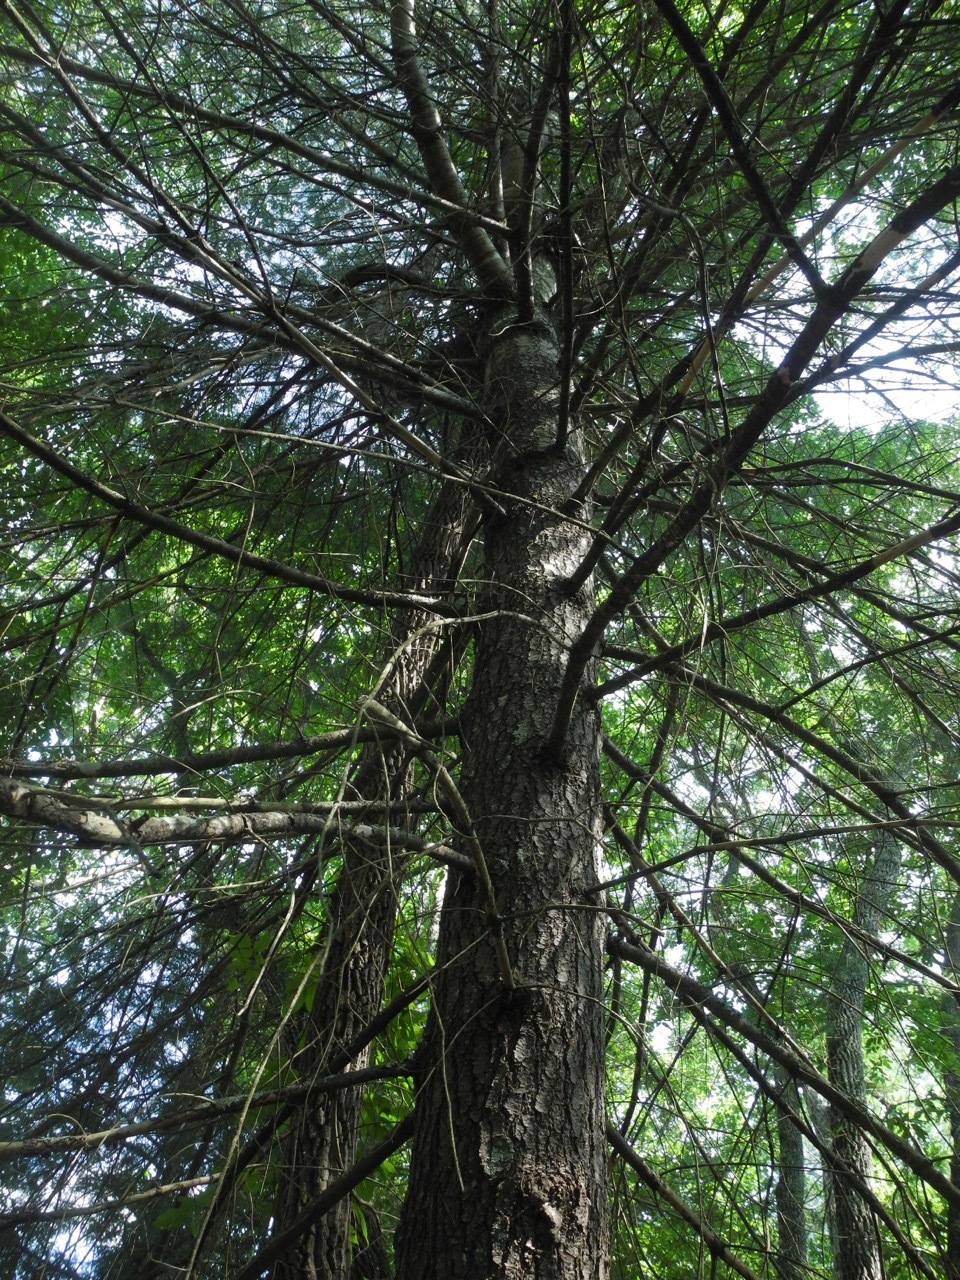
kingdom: Plantae
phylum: Tracheophyta
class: Pinopsida
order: Pinales
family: Pinaceae
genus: Pinus
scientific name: Pinus strobus
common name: Weymouth pine
